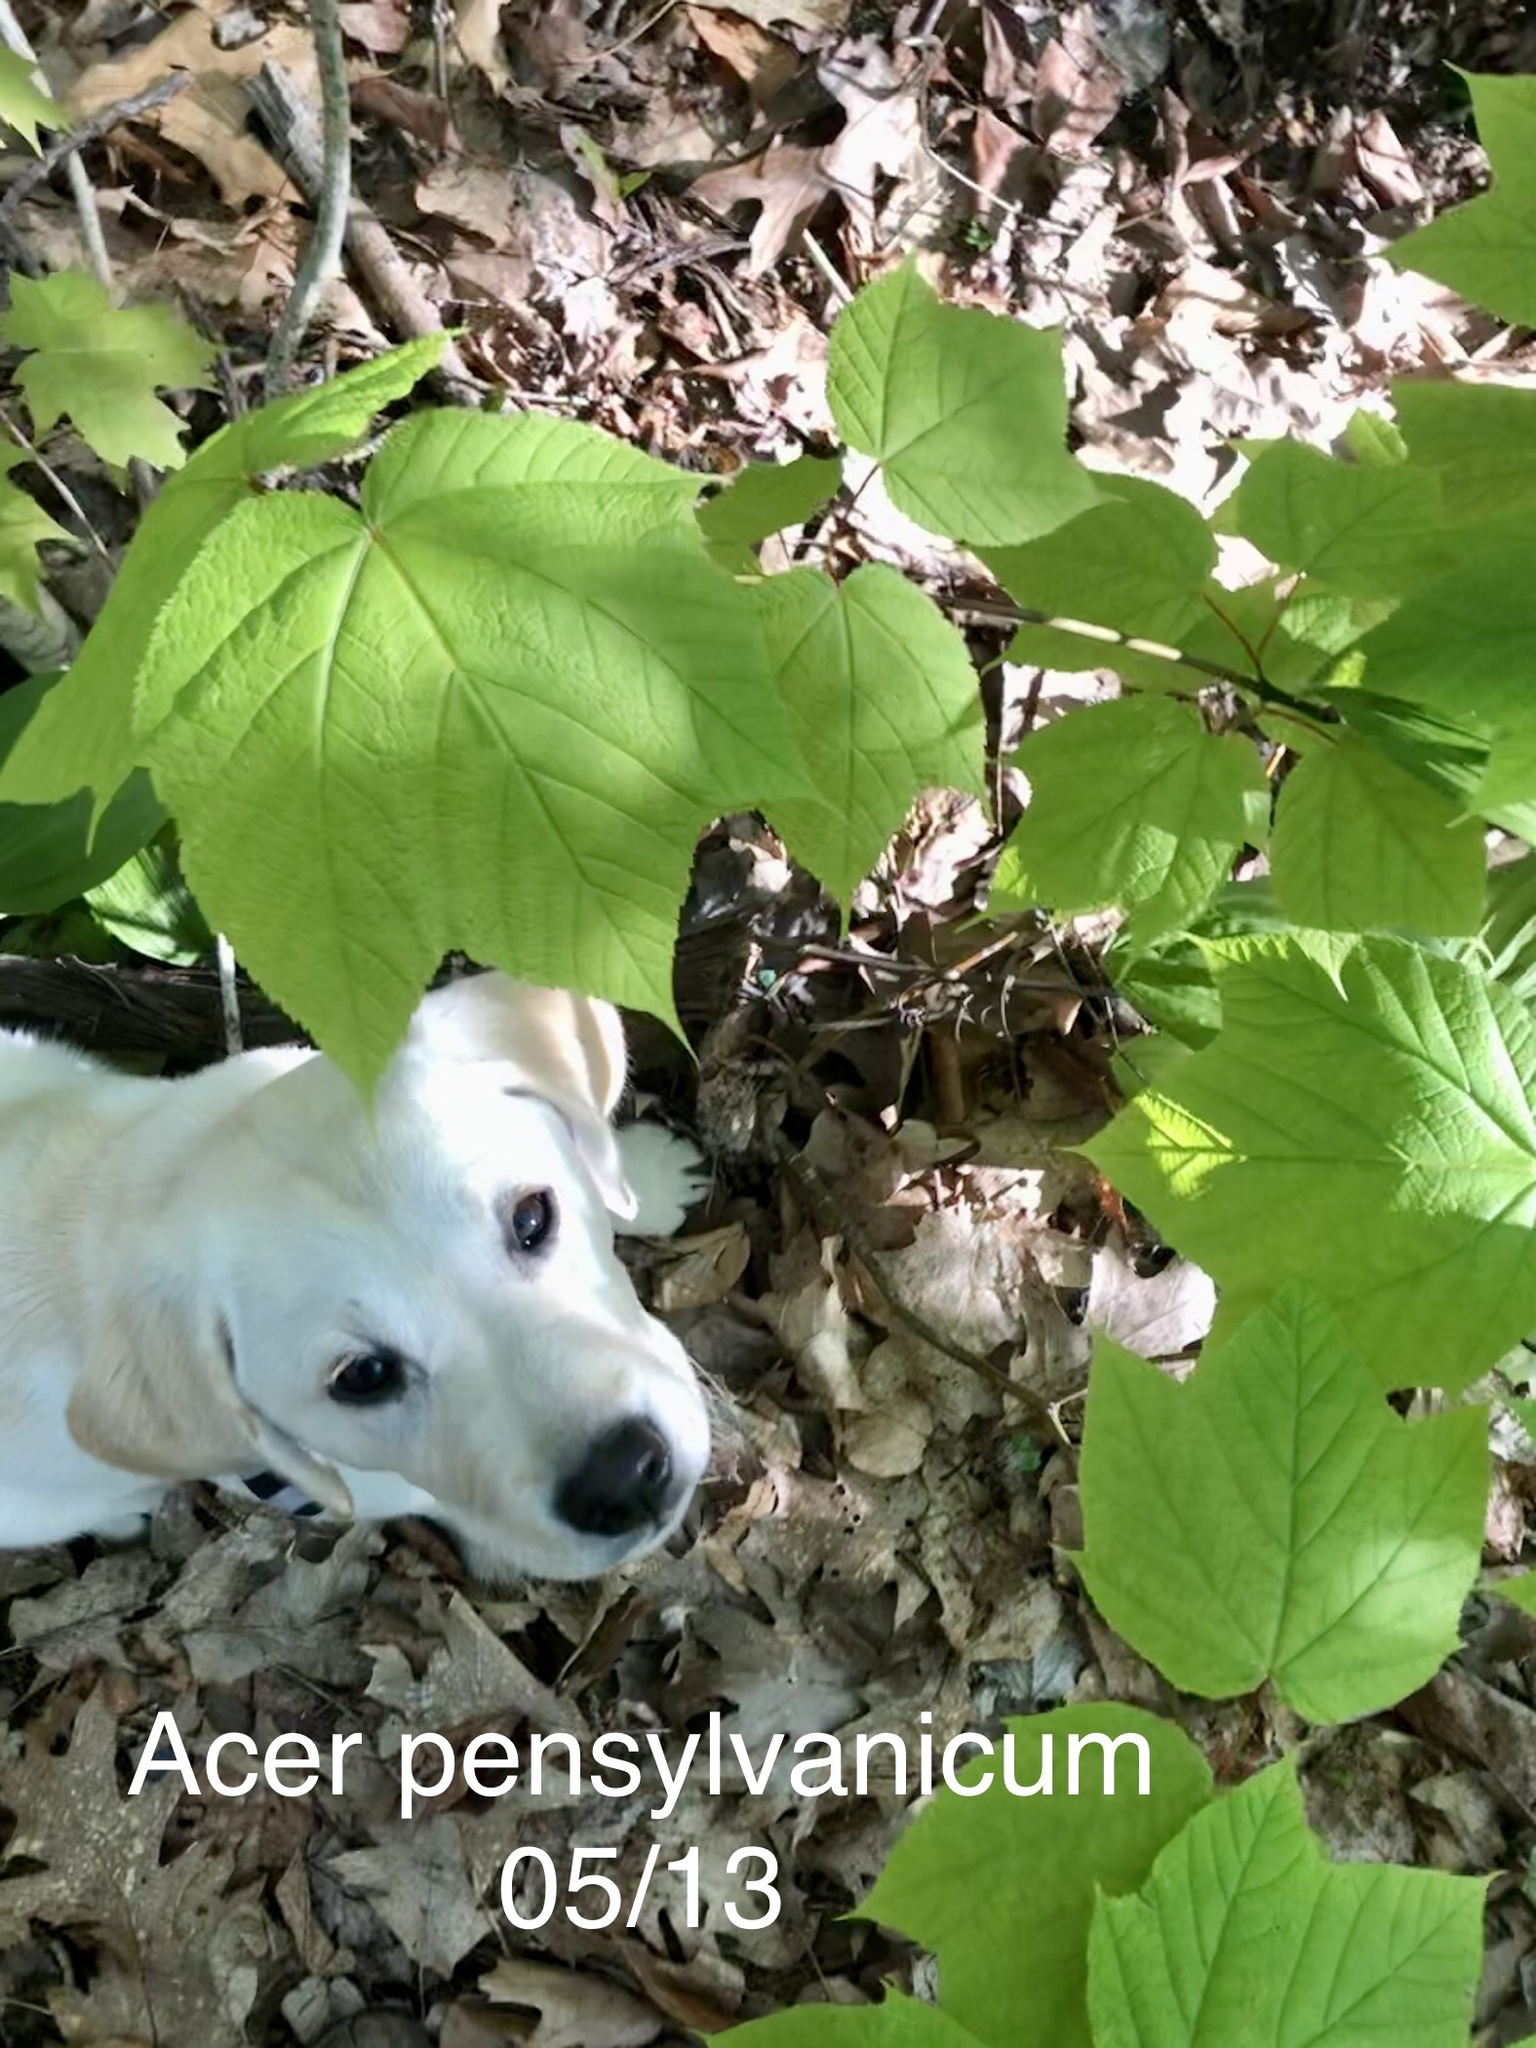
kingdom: Plantae
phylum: Tracheophyta
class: Magnoliopsida
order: Sapindales
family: Sapindaceae
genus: Acer
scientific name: Acer pensylvanicum
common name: Moosewood
